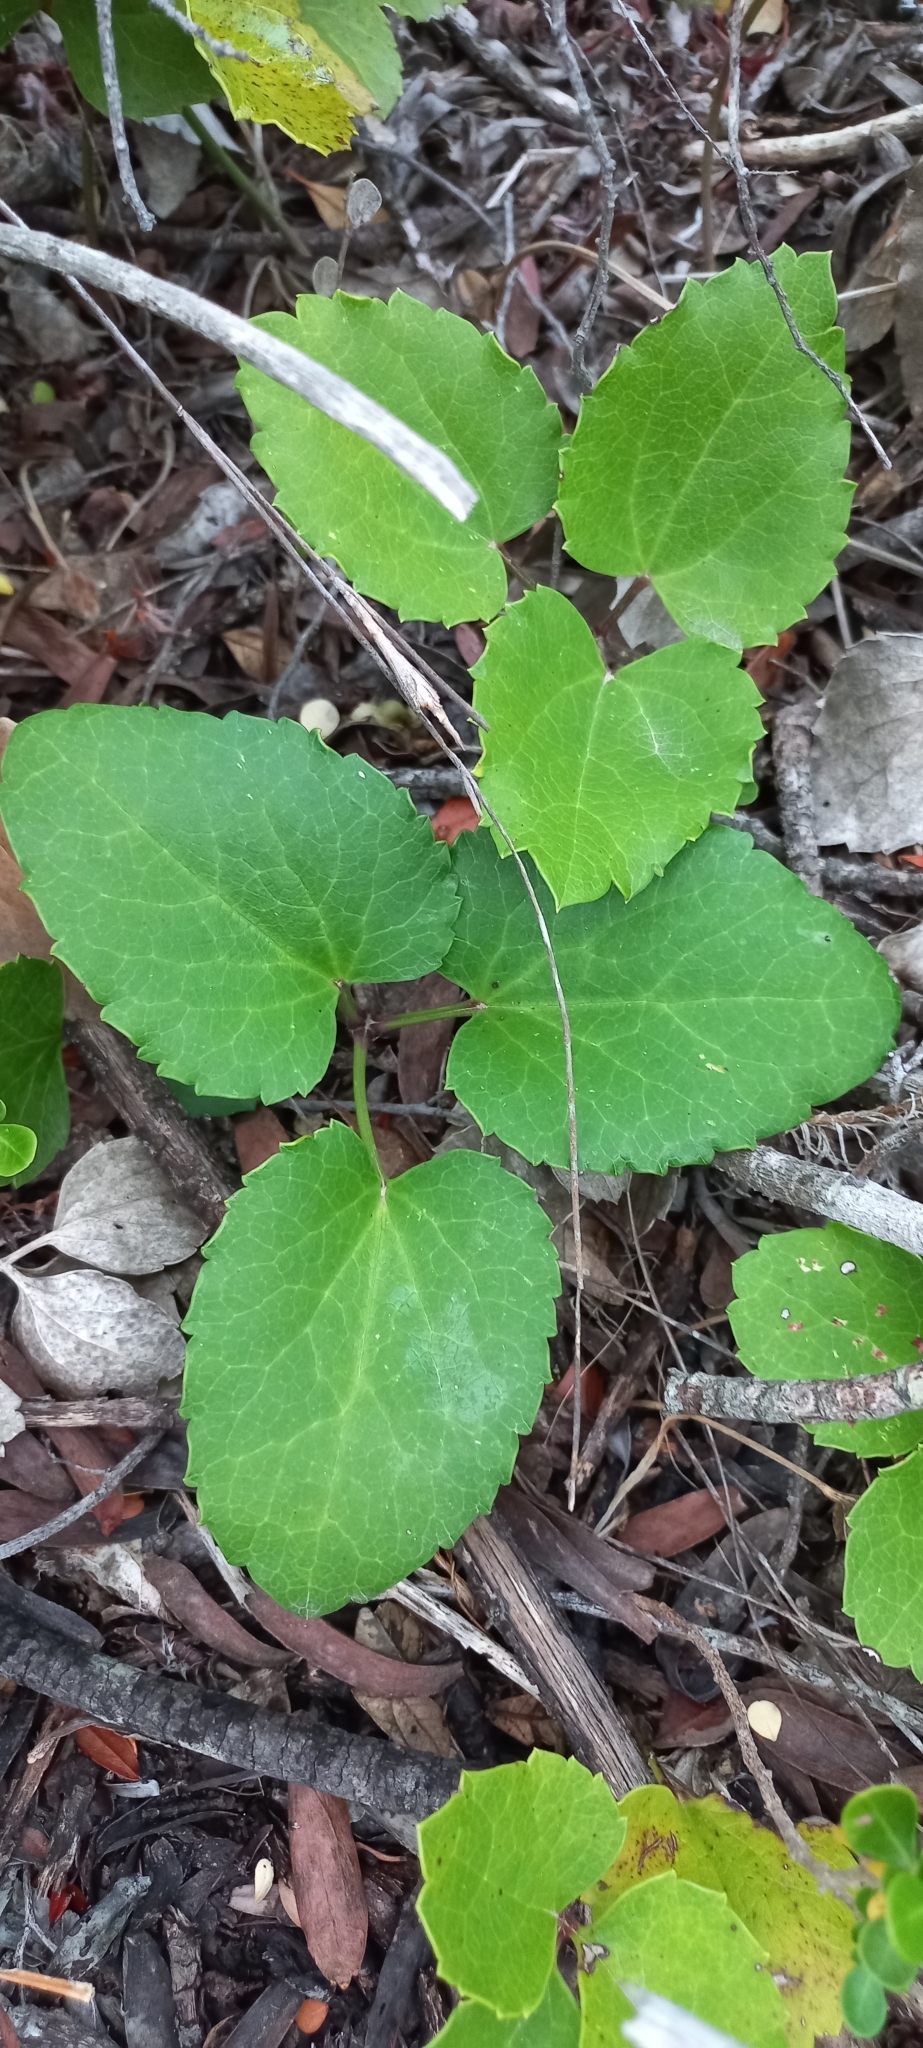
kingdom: Plantae
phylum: Tracheophyta
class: Magnoliopsida
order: Ranunculales
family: Ranunculaceae
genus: Knowltonia
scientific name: Knowltonia vesicatoria
